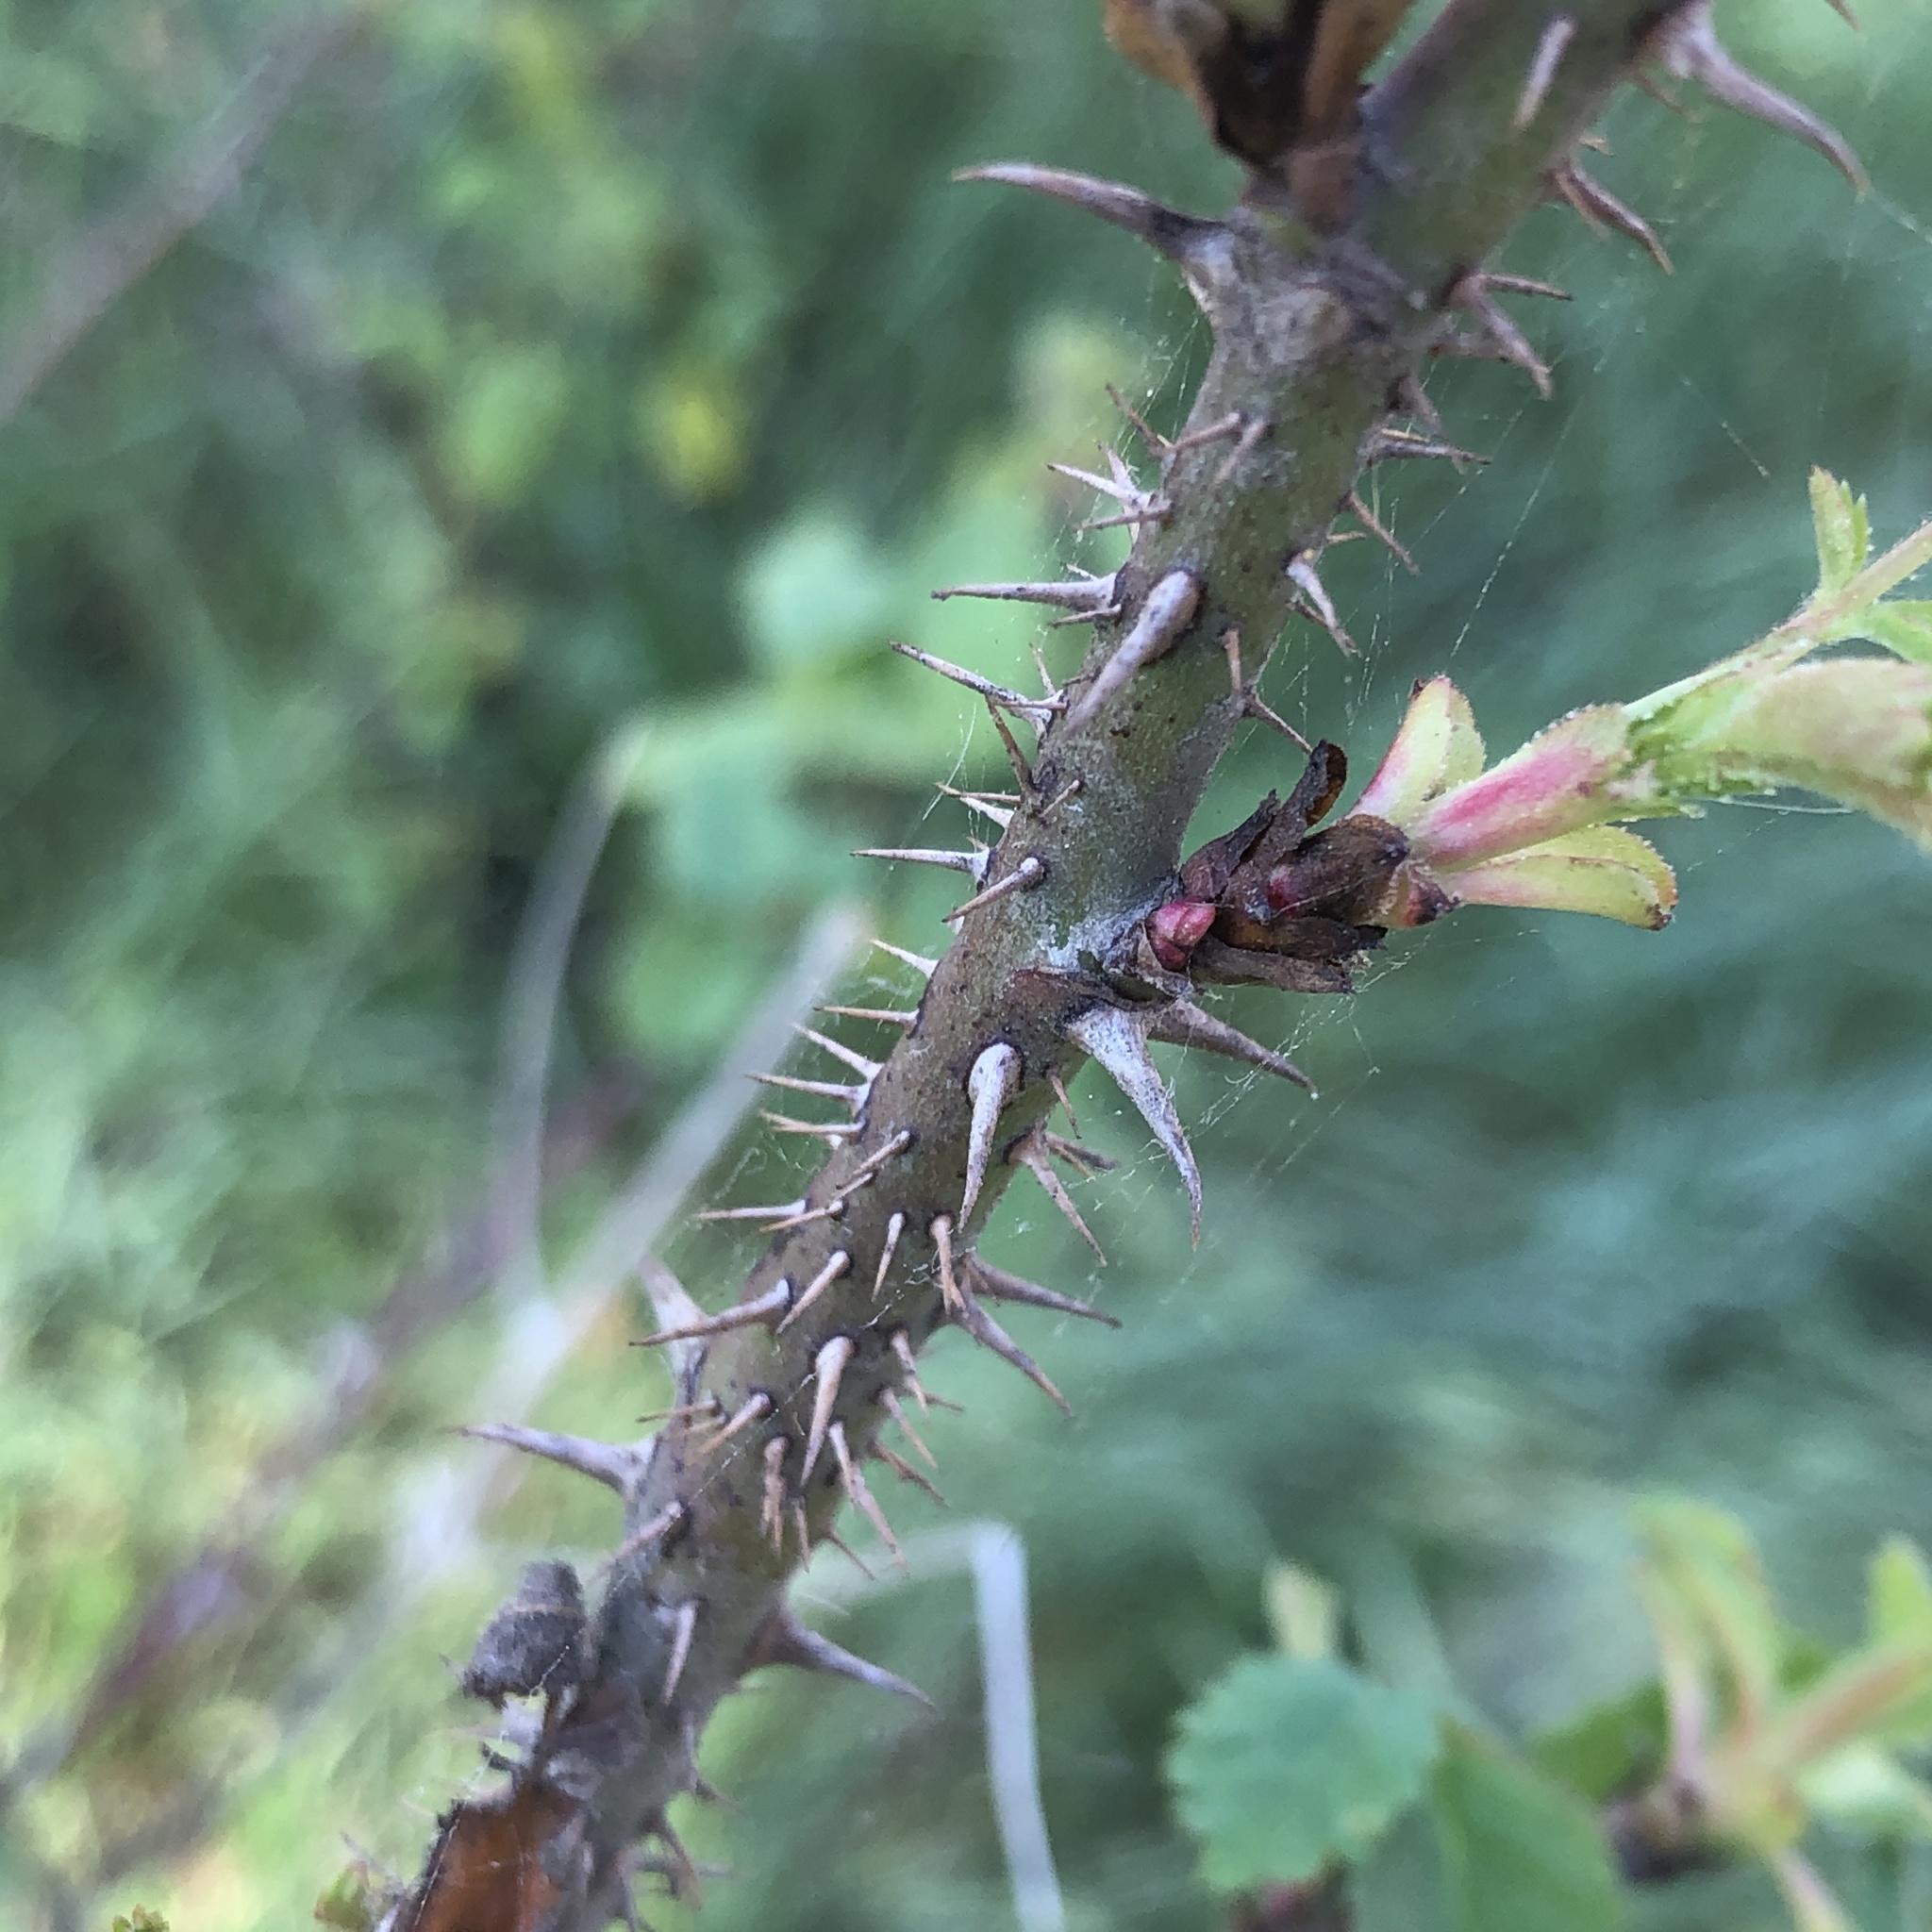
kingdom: Plantae
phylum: Tracheophyta
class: Magnoliopsida
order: Rosales
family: Rosaceae
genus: Rosa
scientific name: Rosa californica
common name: California rose
